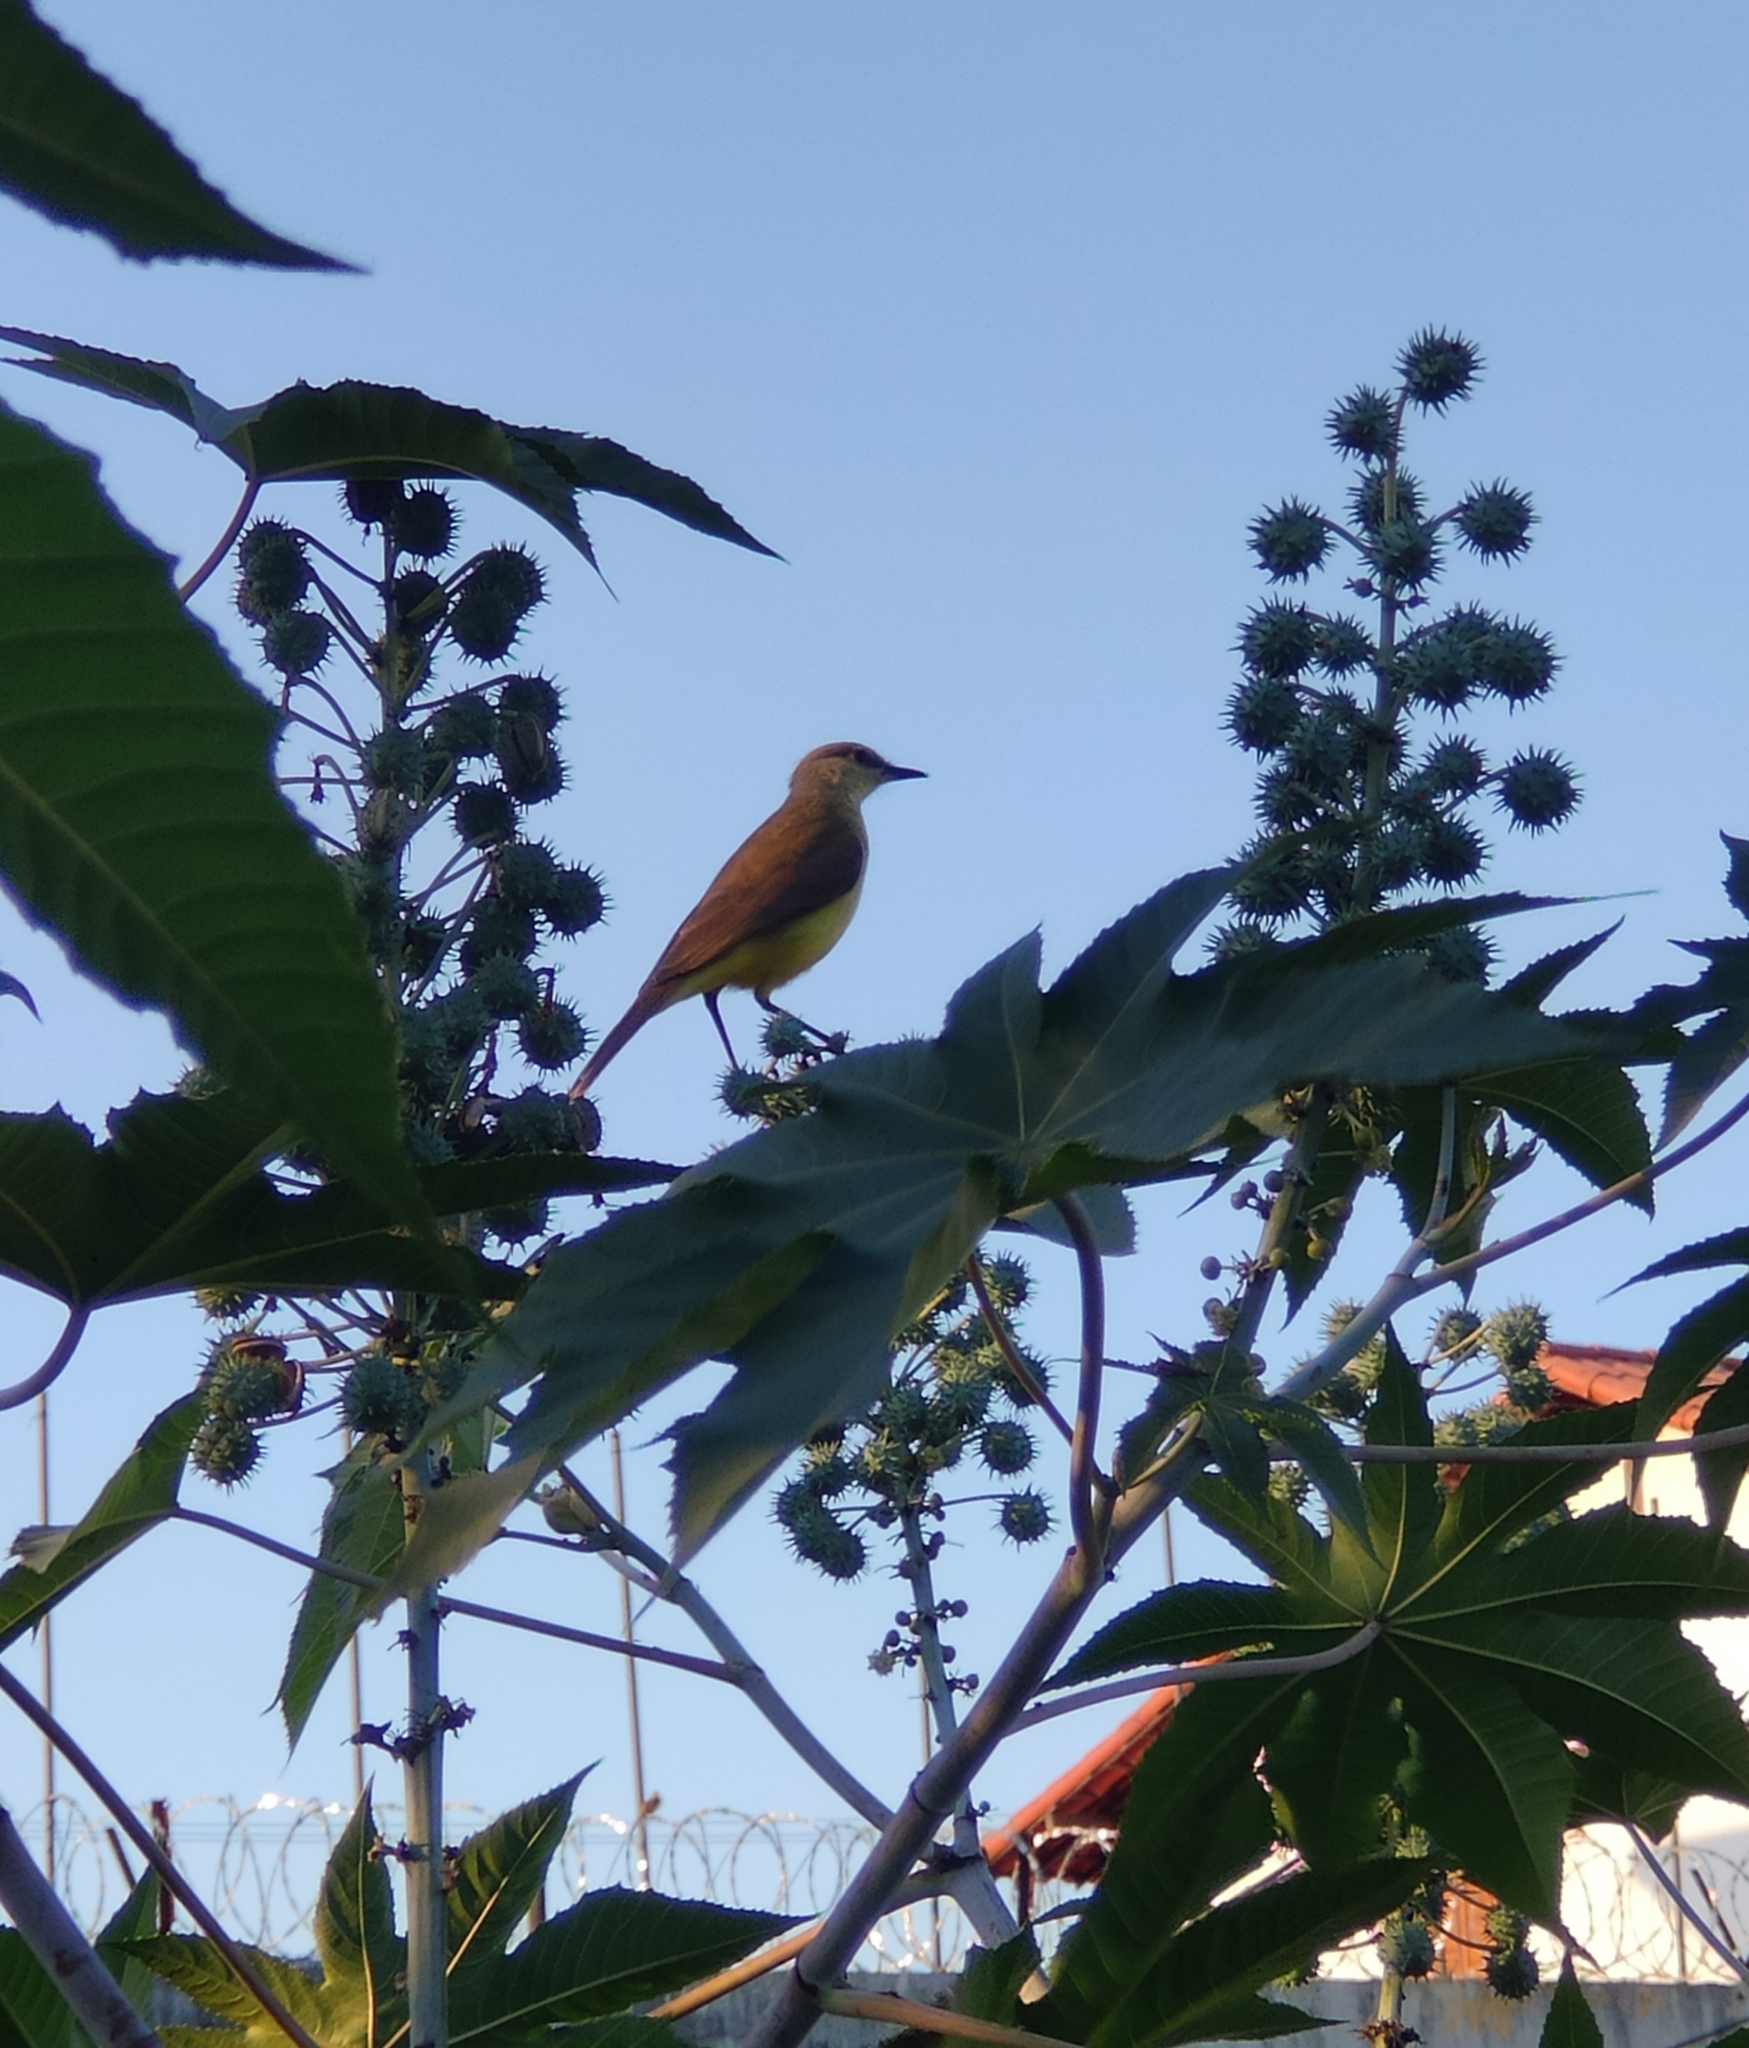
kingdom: Animalia
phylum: Chordata
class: Aves
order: Passeriformes
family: Tyrannidae
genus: Machetornis
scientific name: Machetornis rixosa
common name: Cattle tyrant
